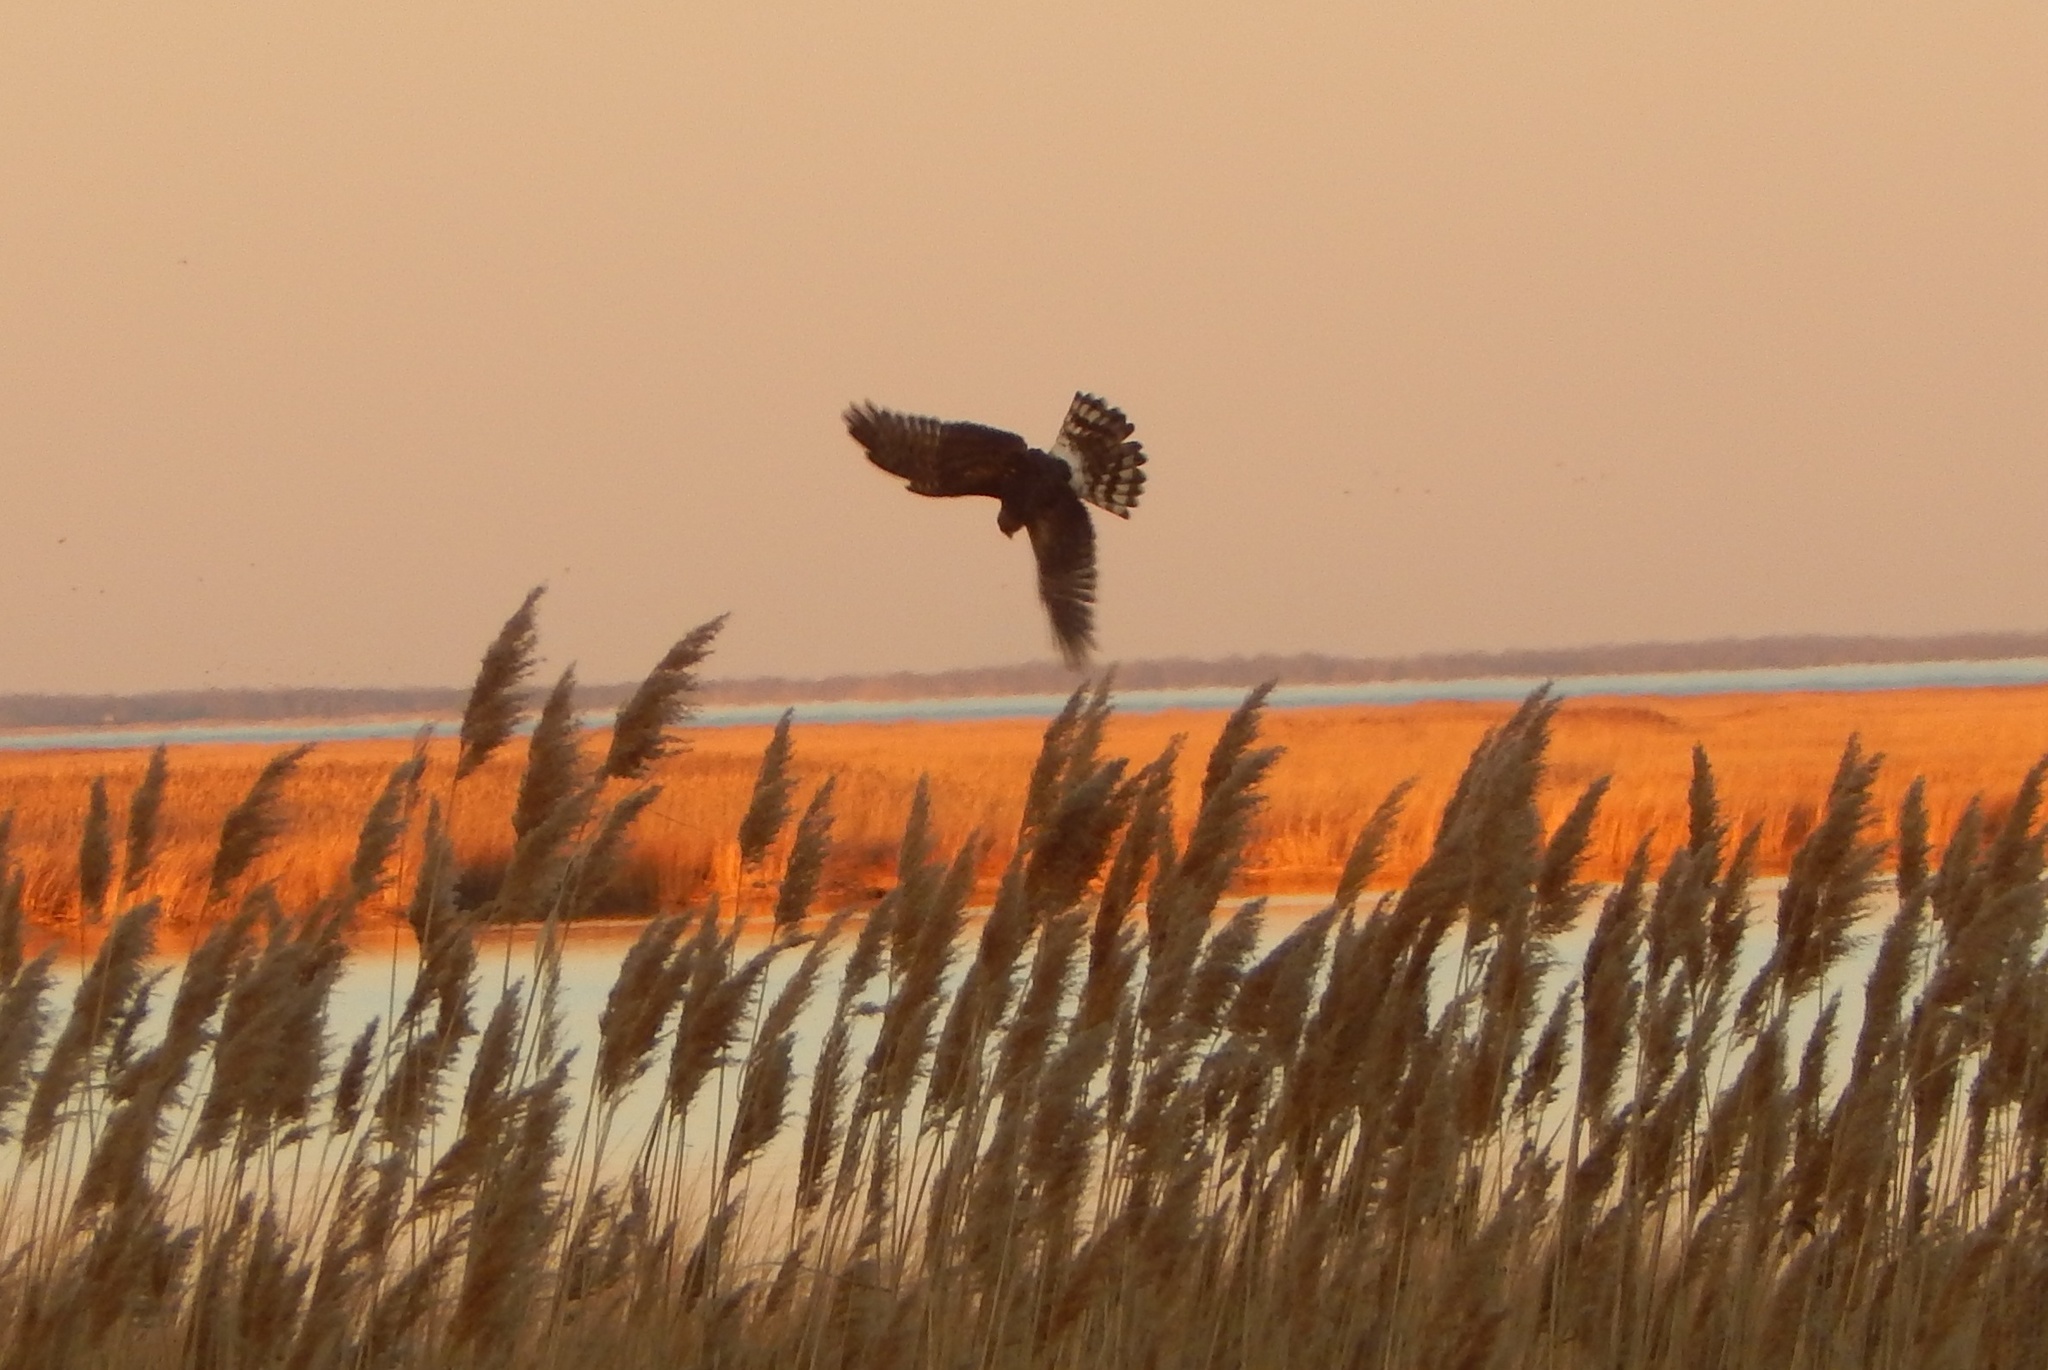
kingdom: Animalia
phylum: Chordata
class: Aves
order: Accipitriformes
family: Accipitridae
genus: Circus
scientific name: Circus cyaneus
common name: Hen harrier
